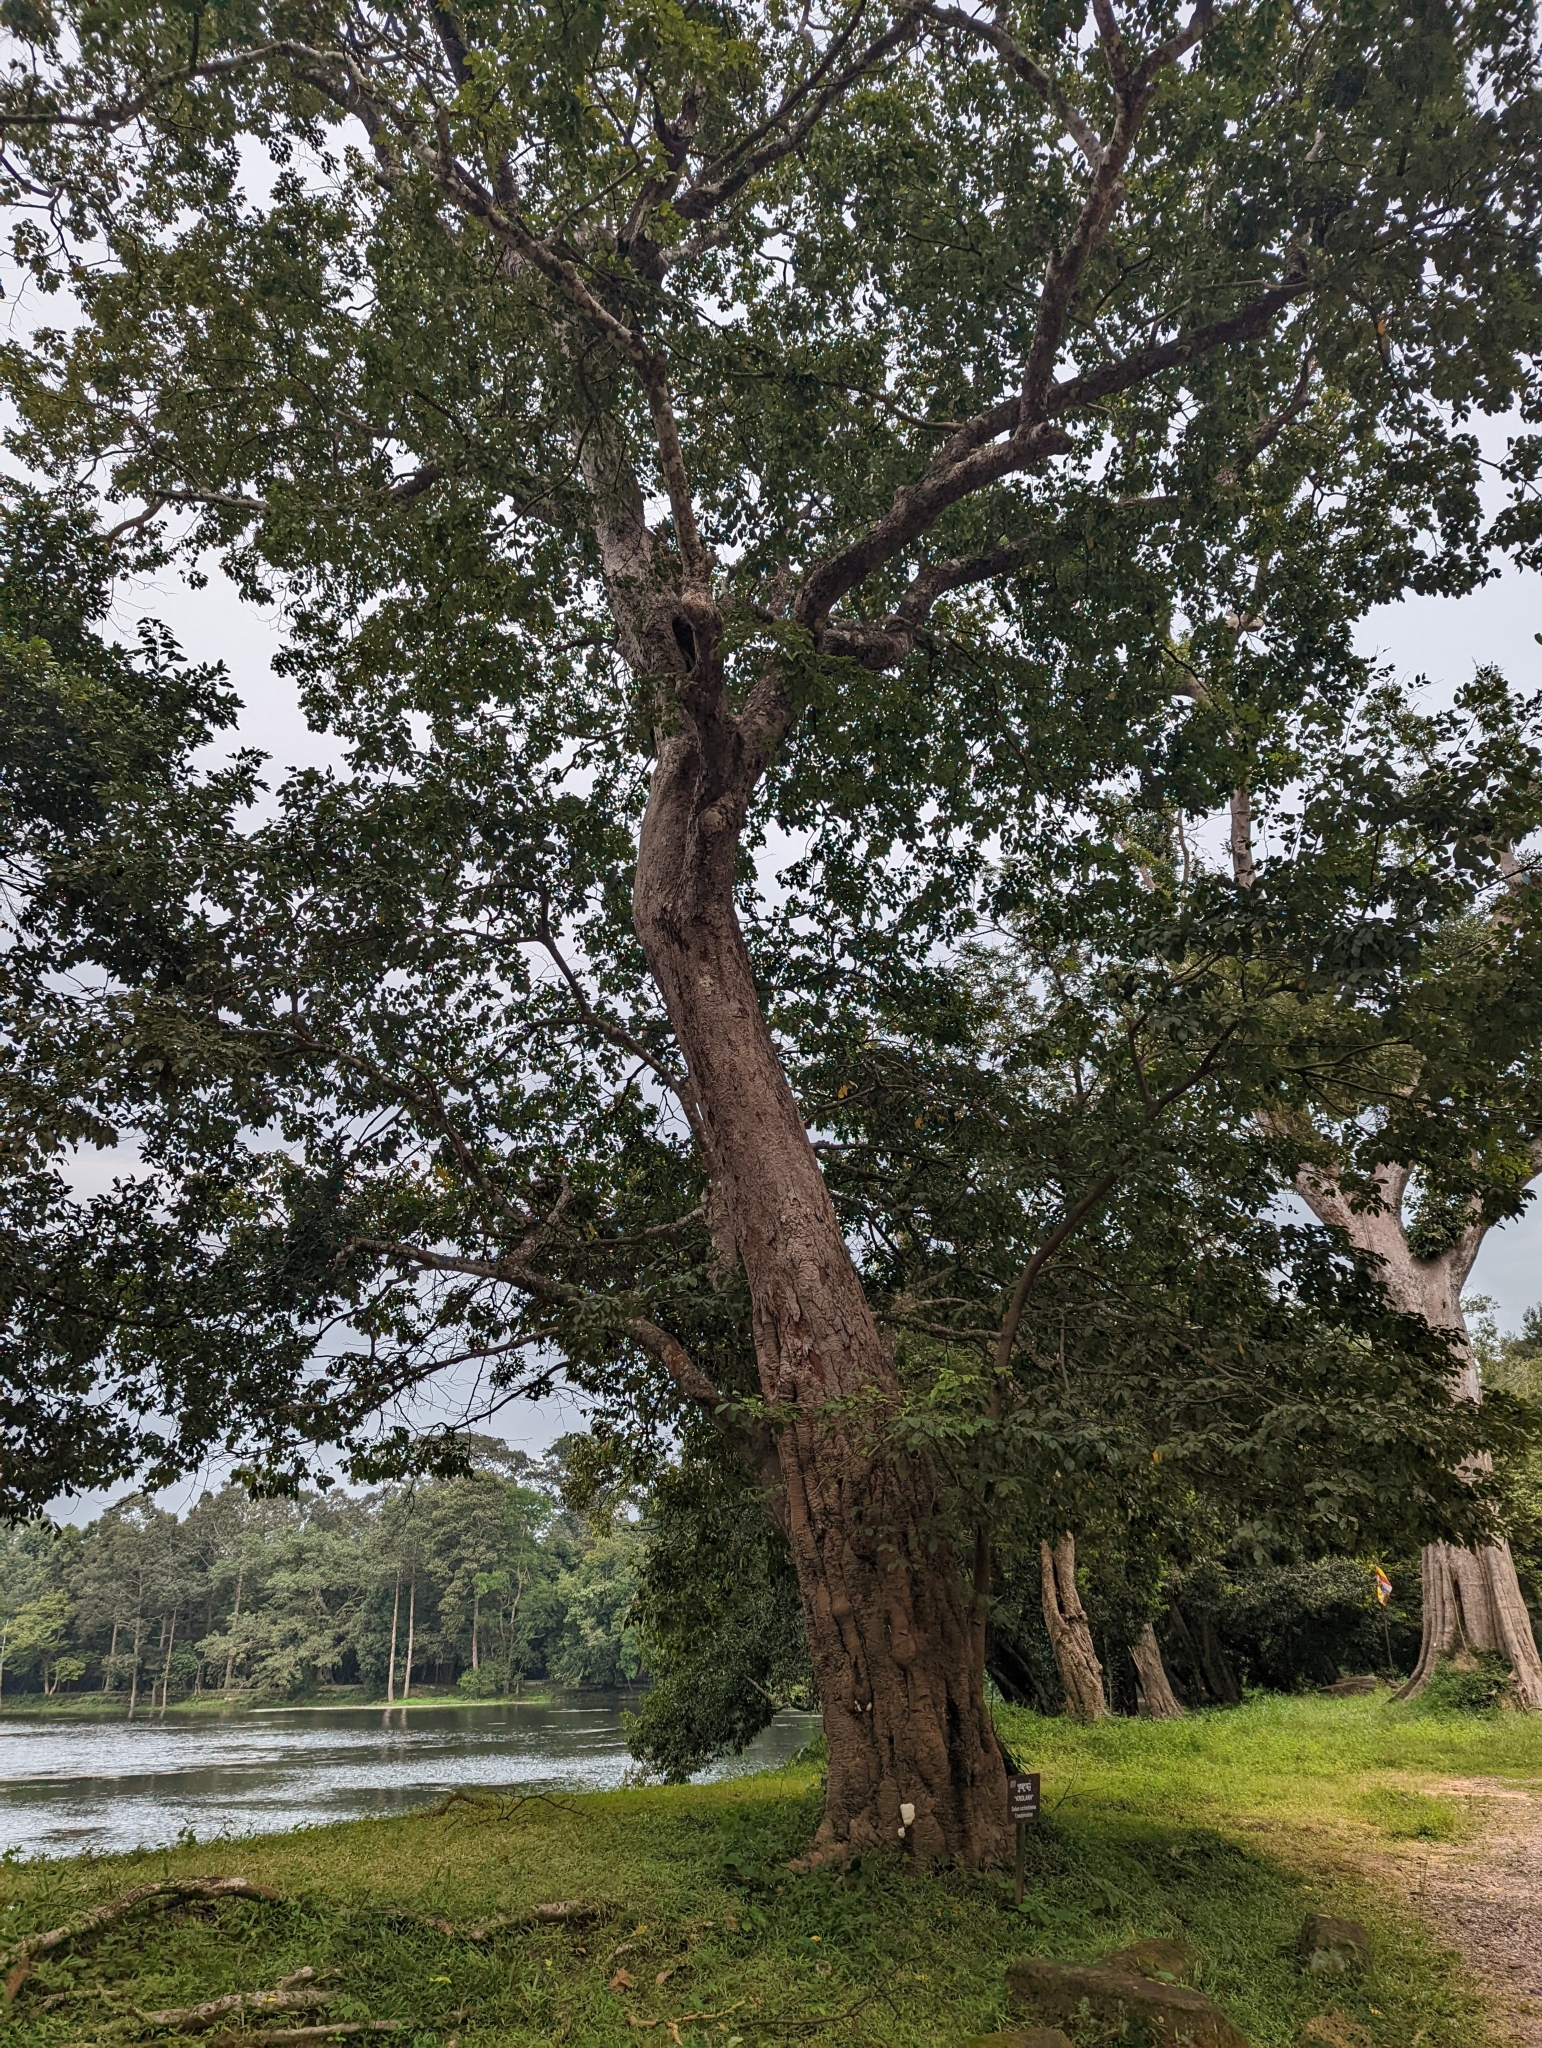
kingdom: Plantae
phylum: Tracheophyta
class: Magnoliopsida
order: Fabales
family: Fabaceae
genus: Dialium
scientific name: Dialium cochinchinense
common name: Velvet tamarind
